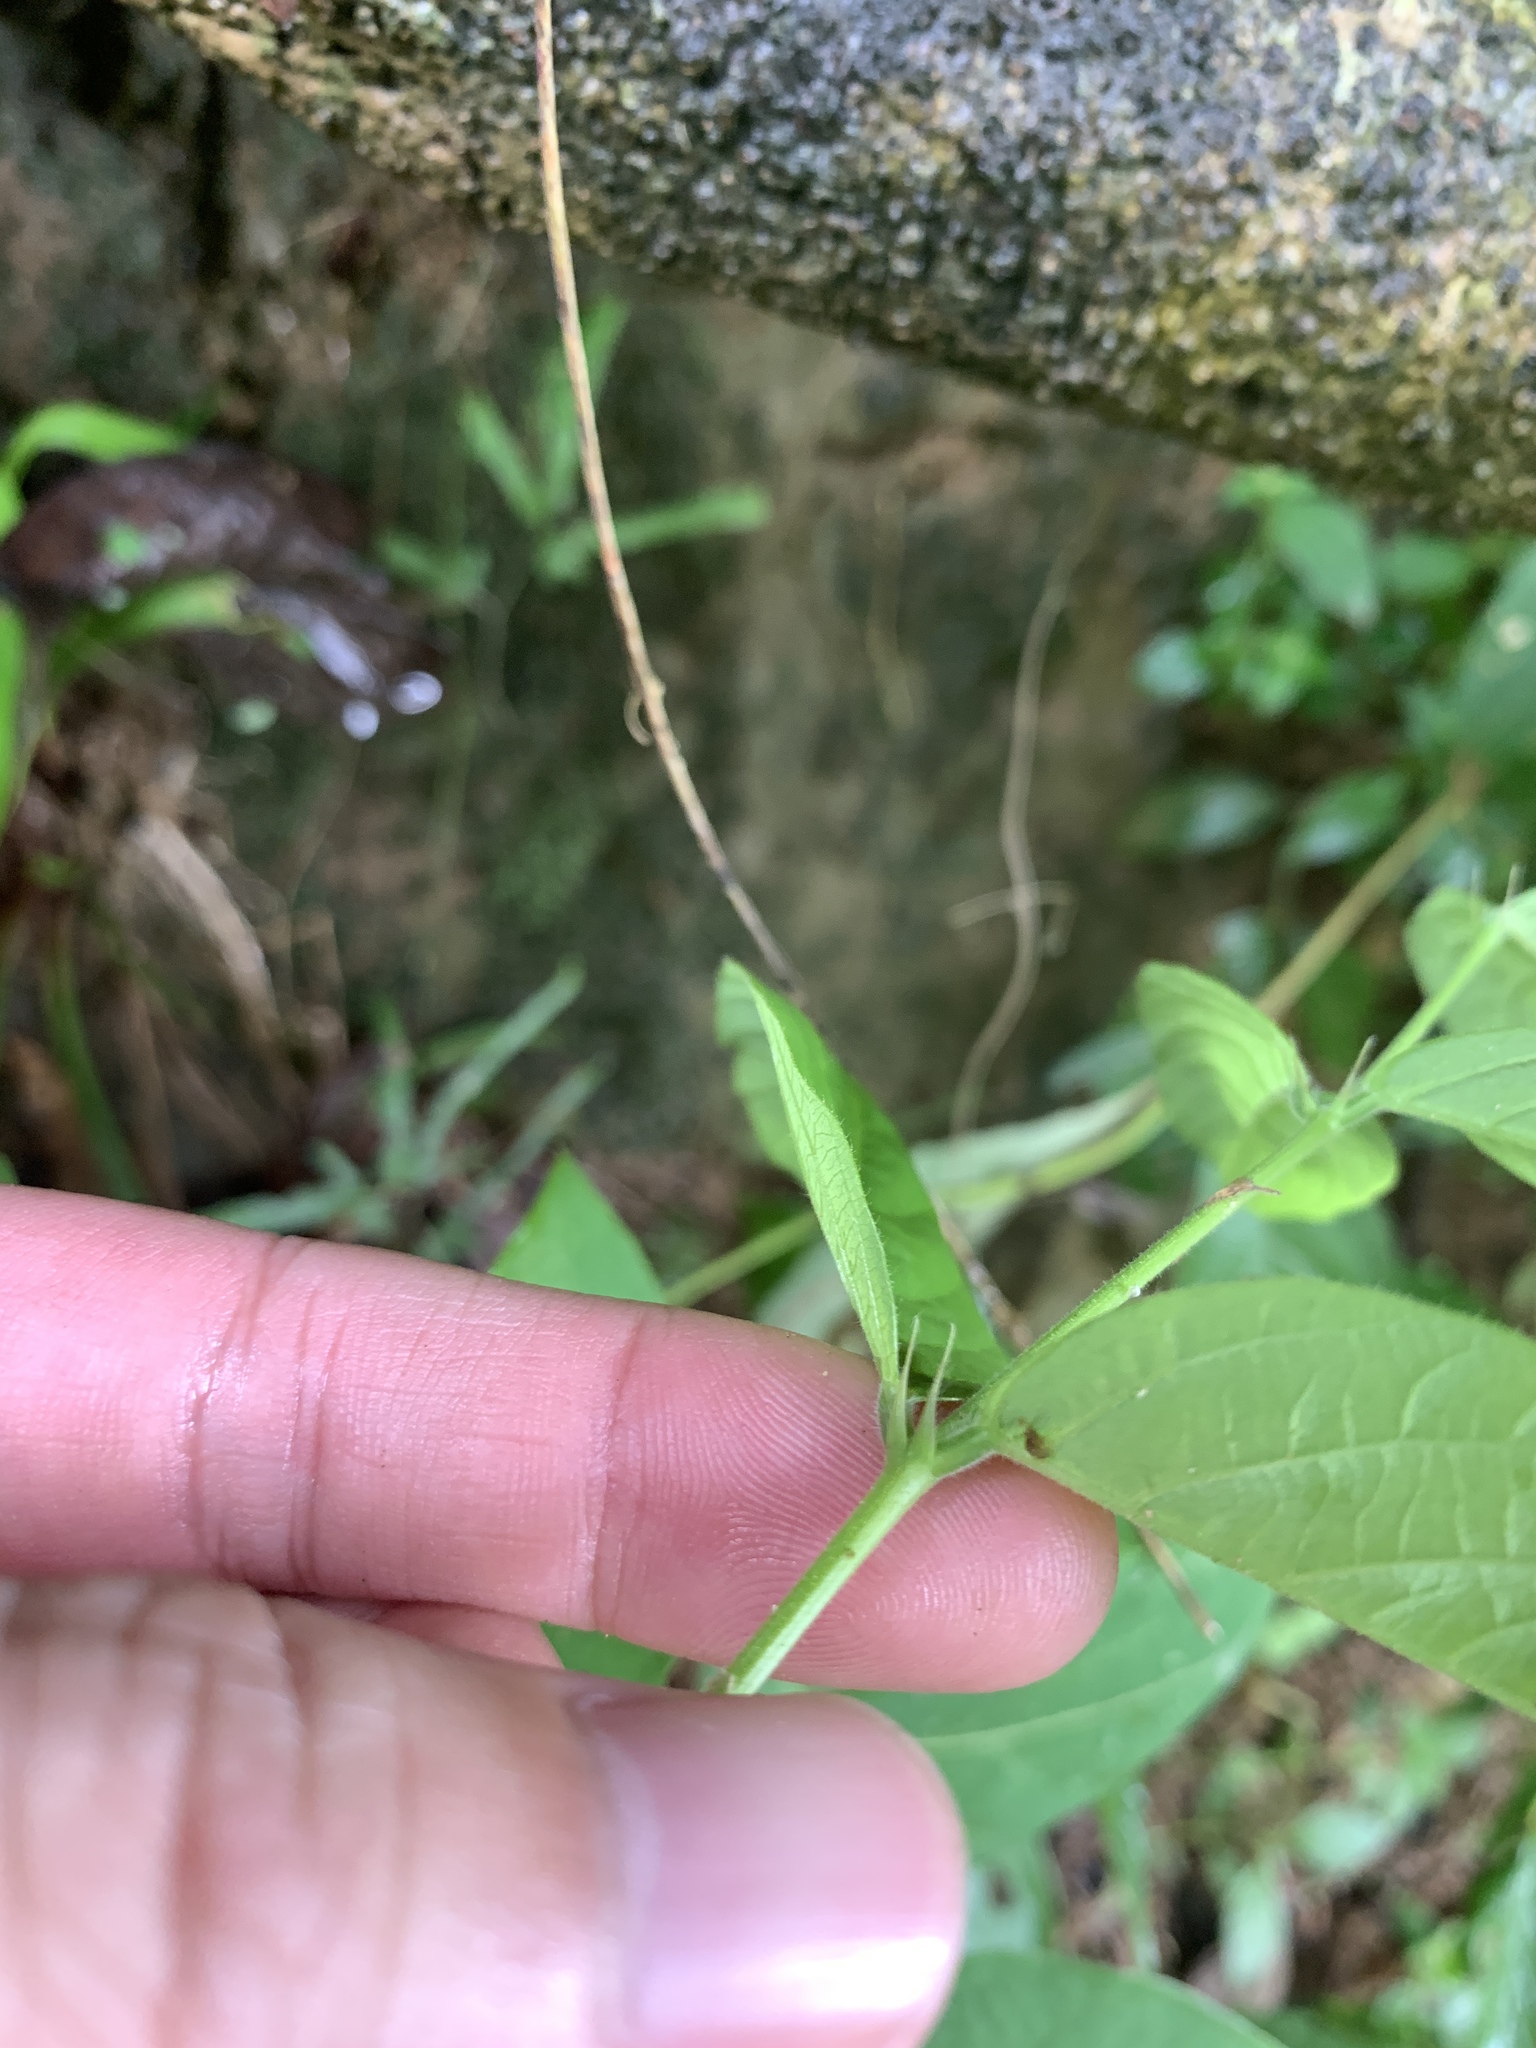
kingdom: Plantae
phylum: Tracheophyta
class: Magnoliopsida
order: Fabales
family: Fabaceae
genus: Uraria
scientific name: Uraria crinita
